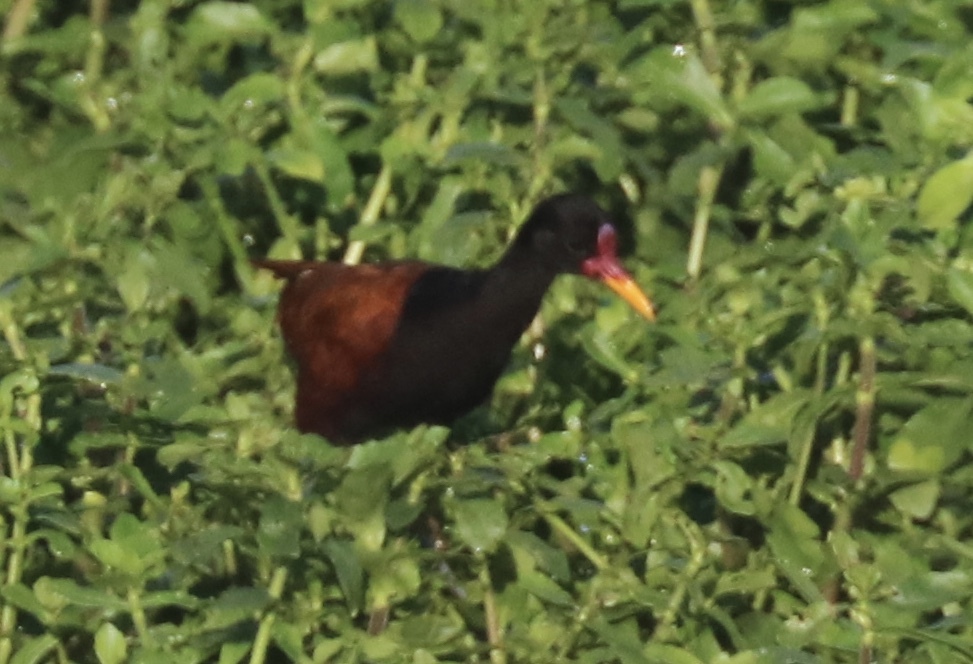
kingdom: Animalia
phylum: Chordata
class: Aves
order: Charadriiformes
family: Jacanidae
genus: Jacana
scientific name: Jacana jacana
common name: Wattled jacana
